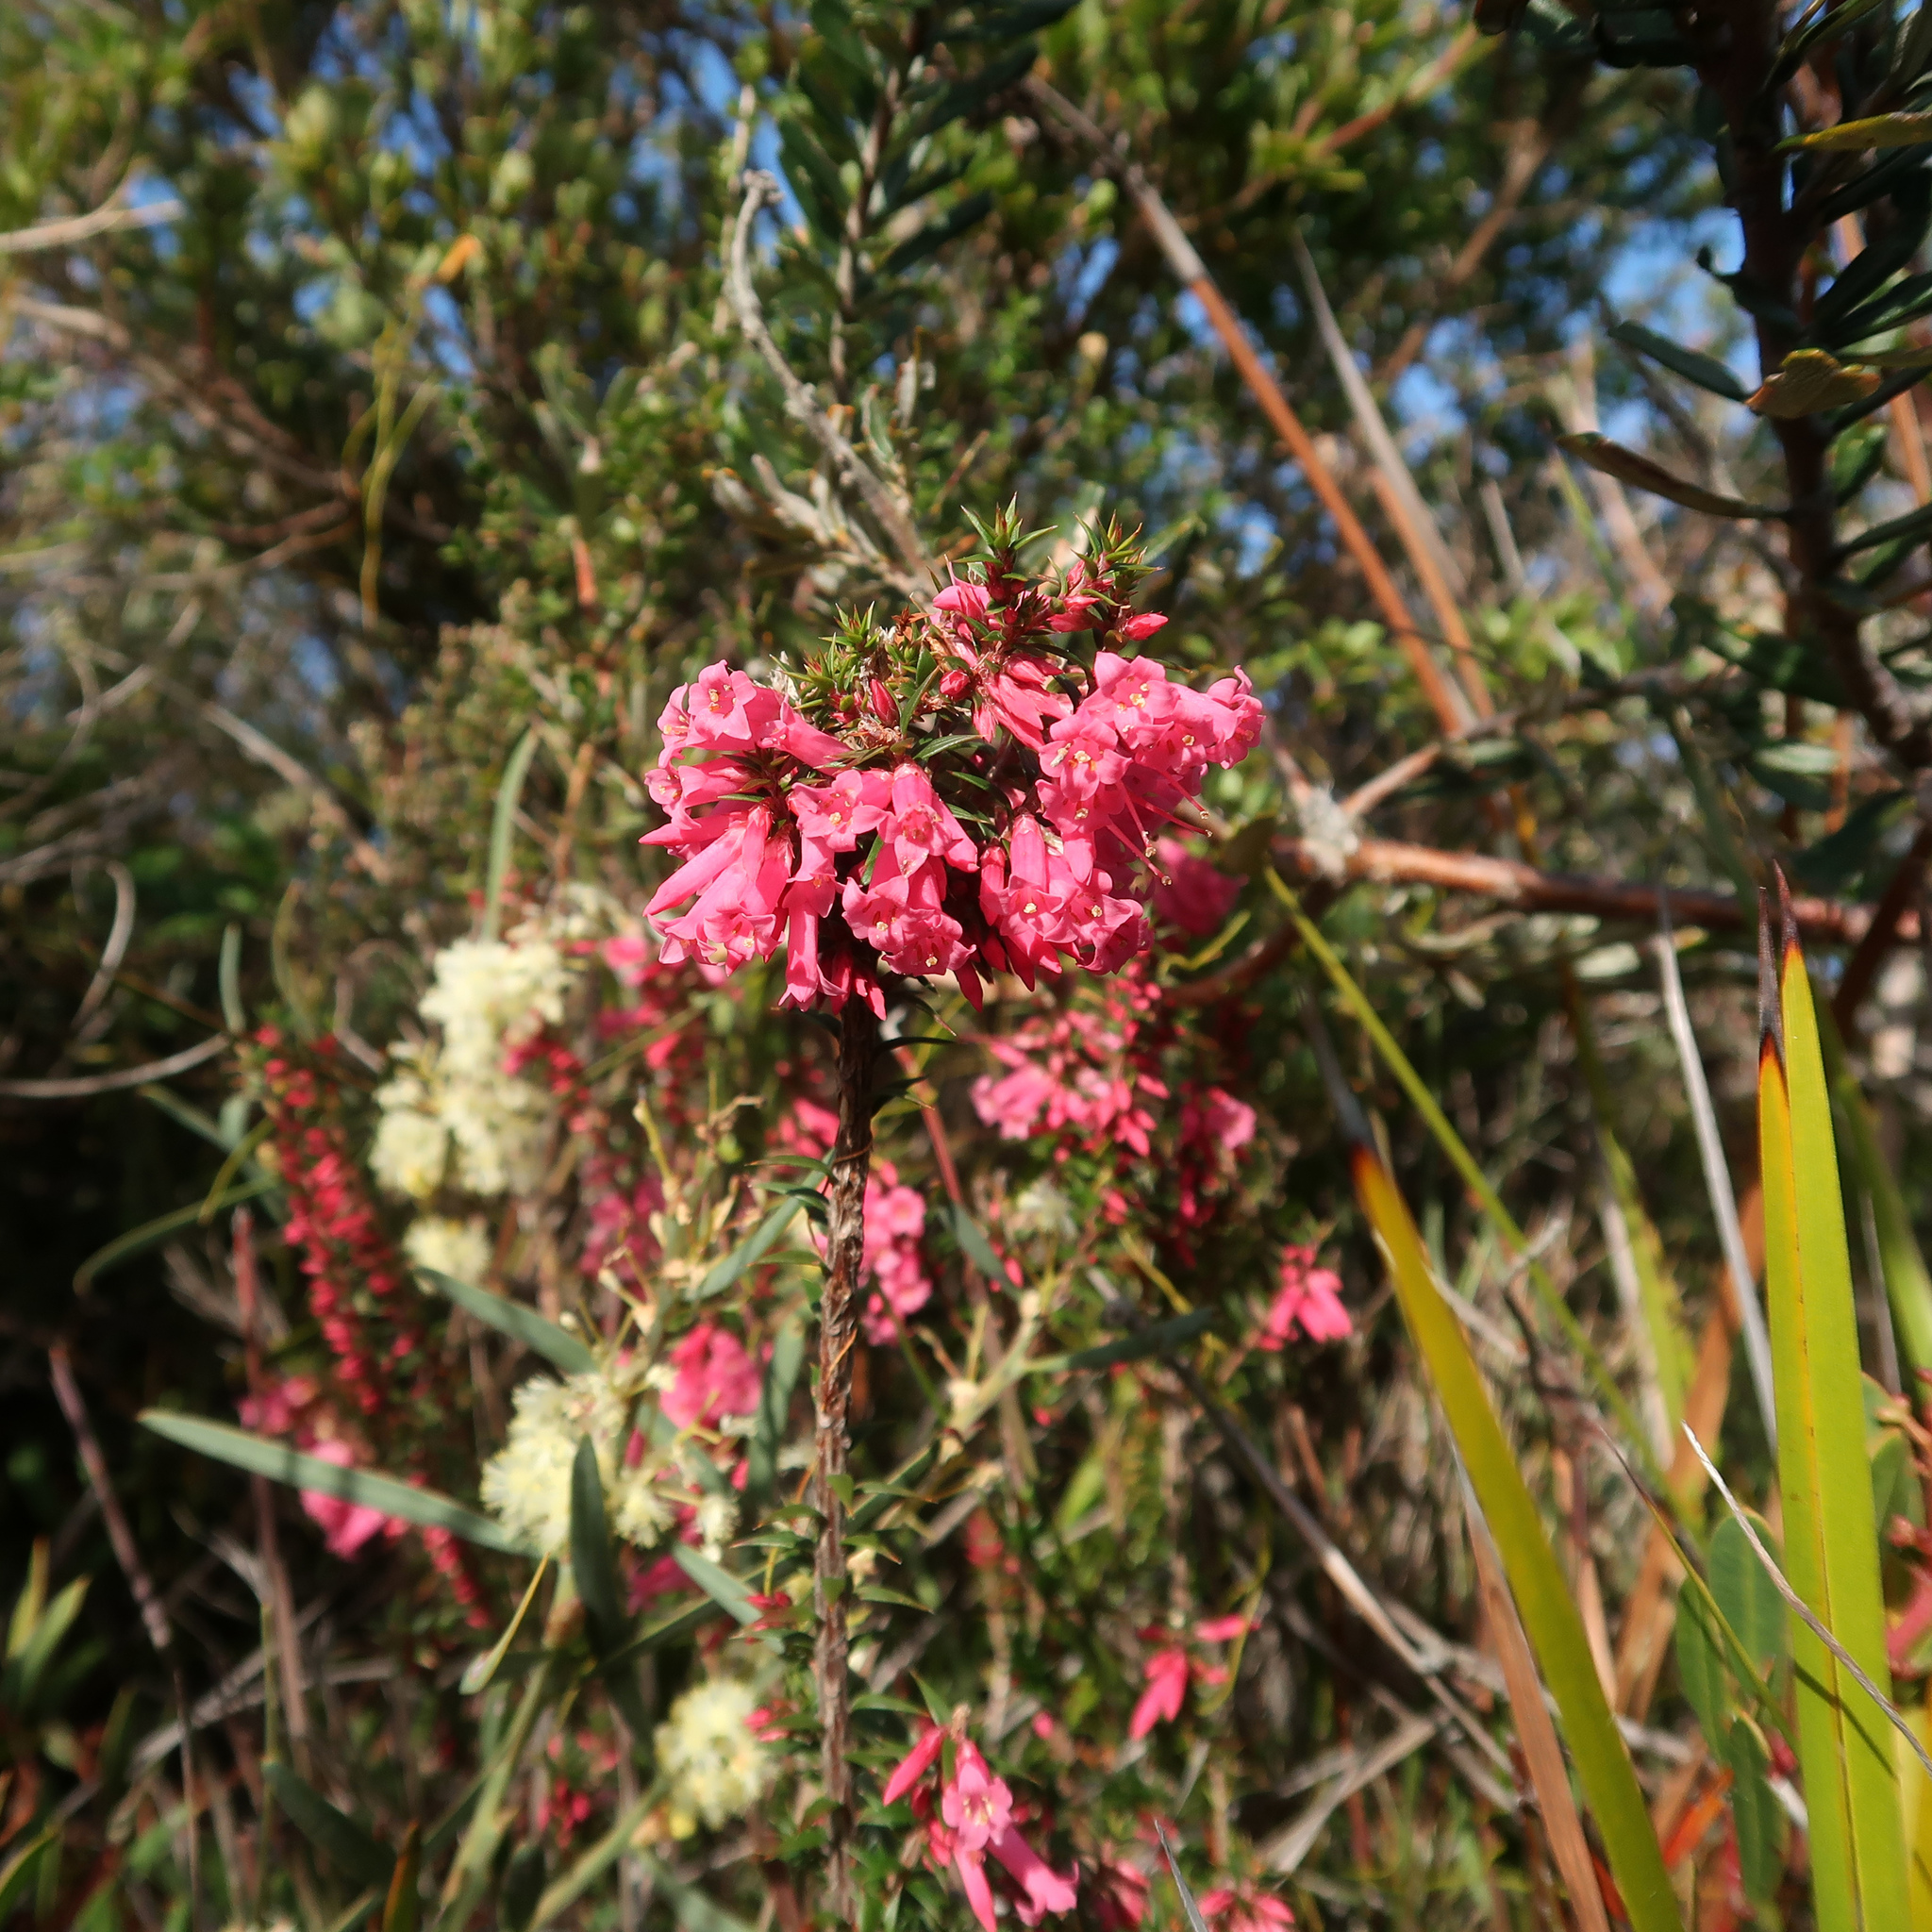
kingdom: Plantae
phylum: Tracheophyta
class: Magnoliopsida
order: Ericales
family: Ericaceae
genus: Epacris
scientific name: Epacris impressa
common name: Common-heath
